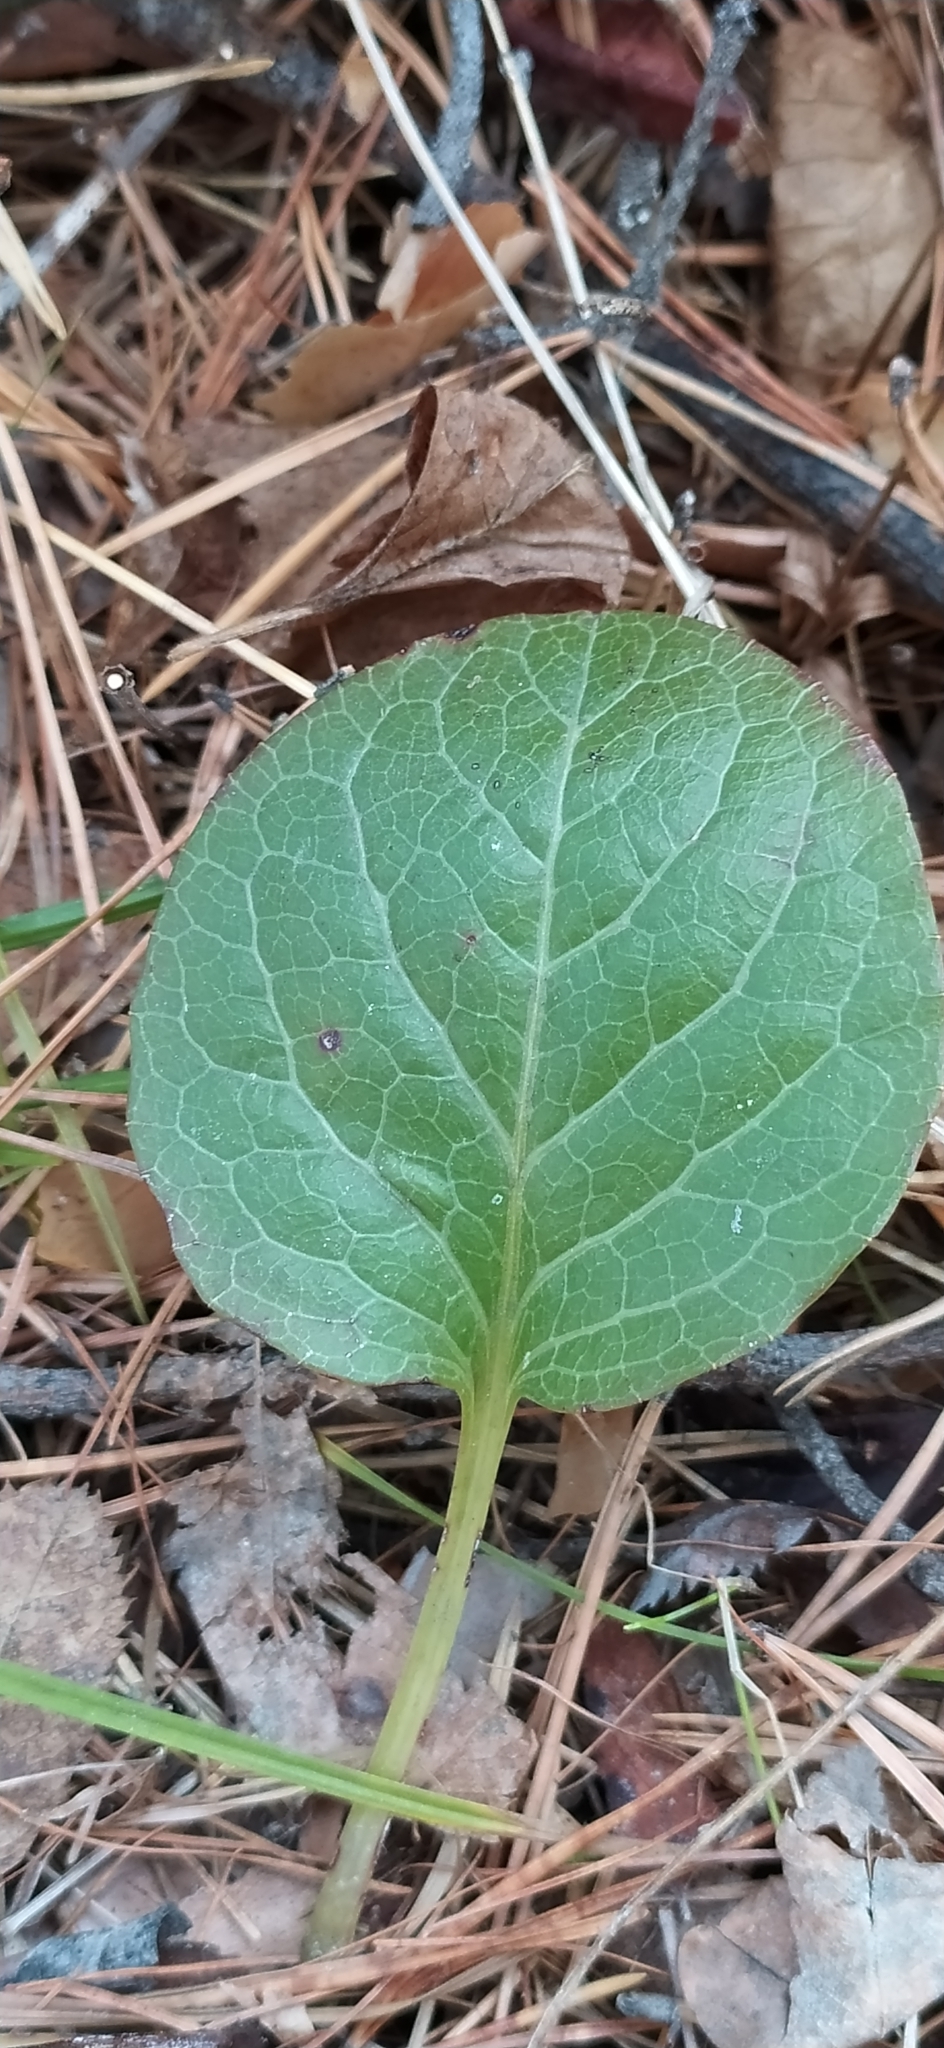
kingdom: Plantae
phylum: Tracheophyta
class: Magnoliopsida
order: Ericales
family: Ericaceae
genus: Pyrola
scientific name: Pyrola rotundifolia
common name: Round-leaved wintergreen
